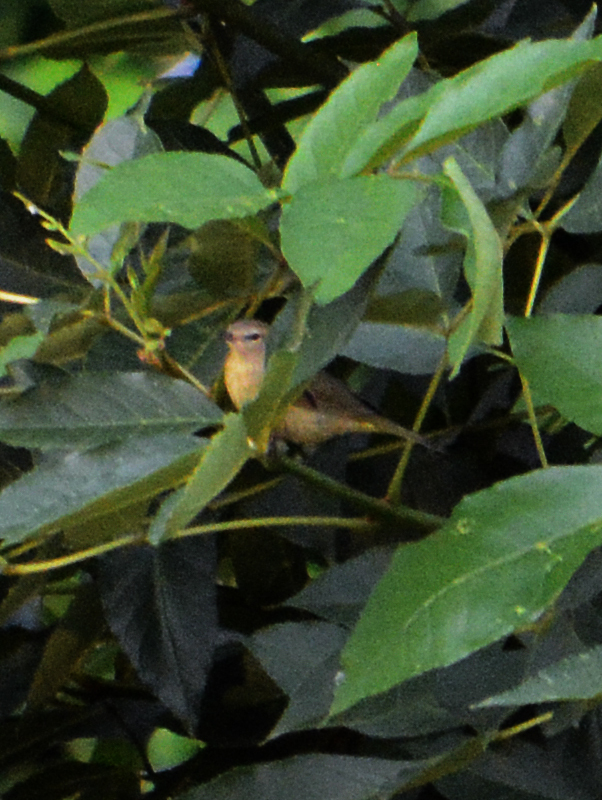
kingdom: Animalia
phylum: Chordata
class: Aves
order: Passeriformes
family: Parulidae
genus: Leiothlypis
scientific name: Leiothlypis celata
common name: Orange-crowned warbler
